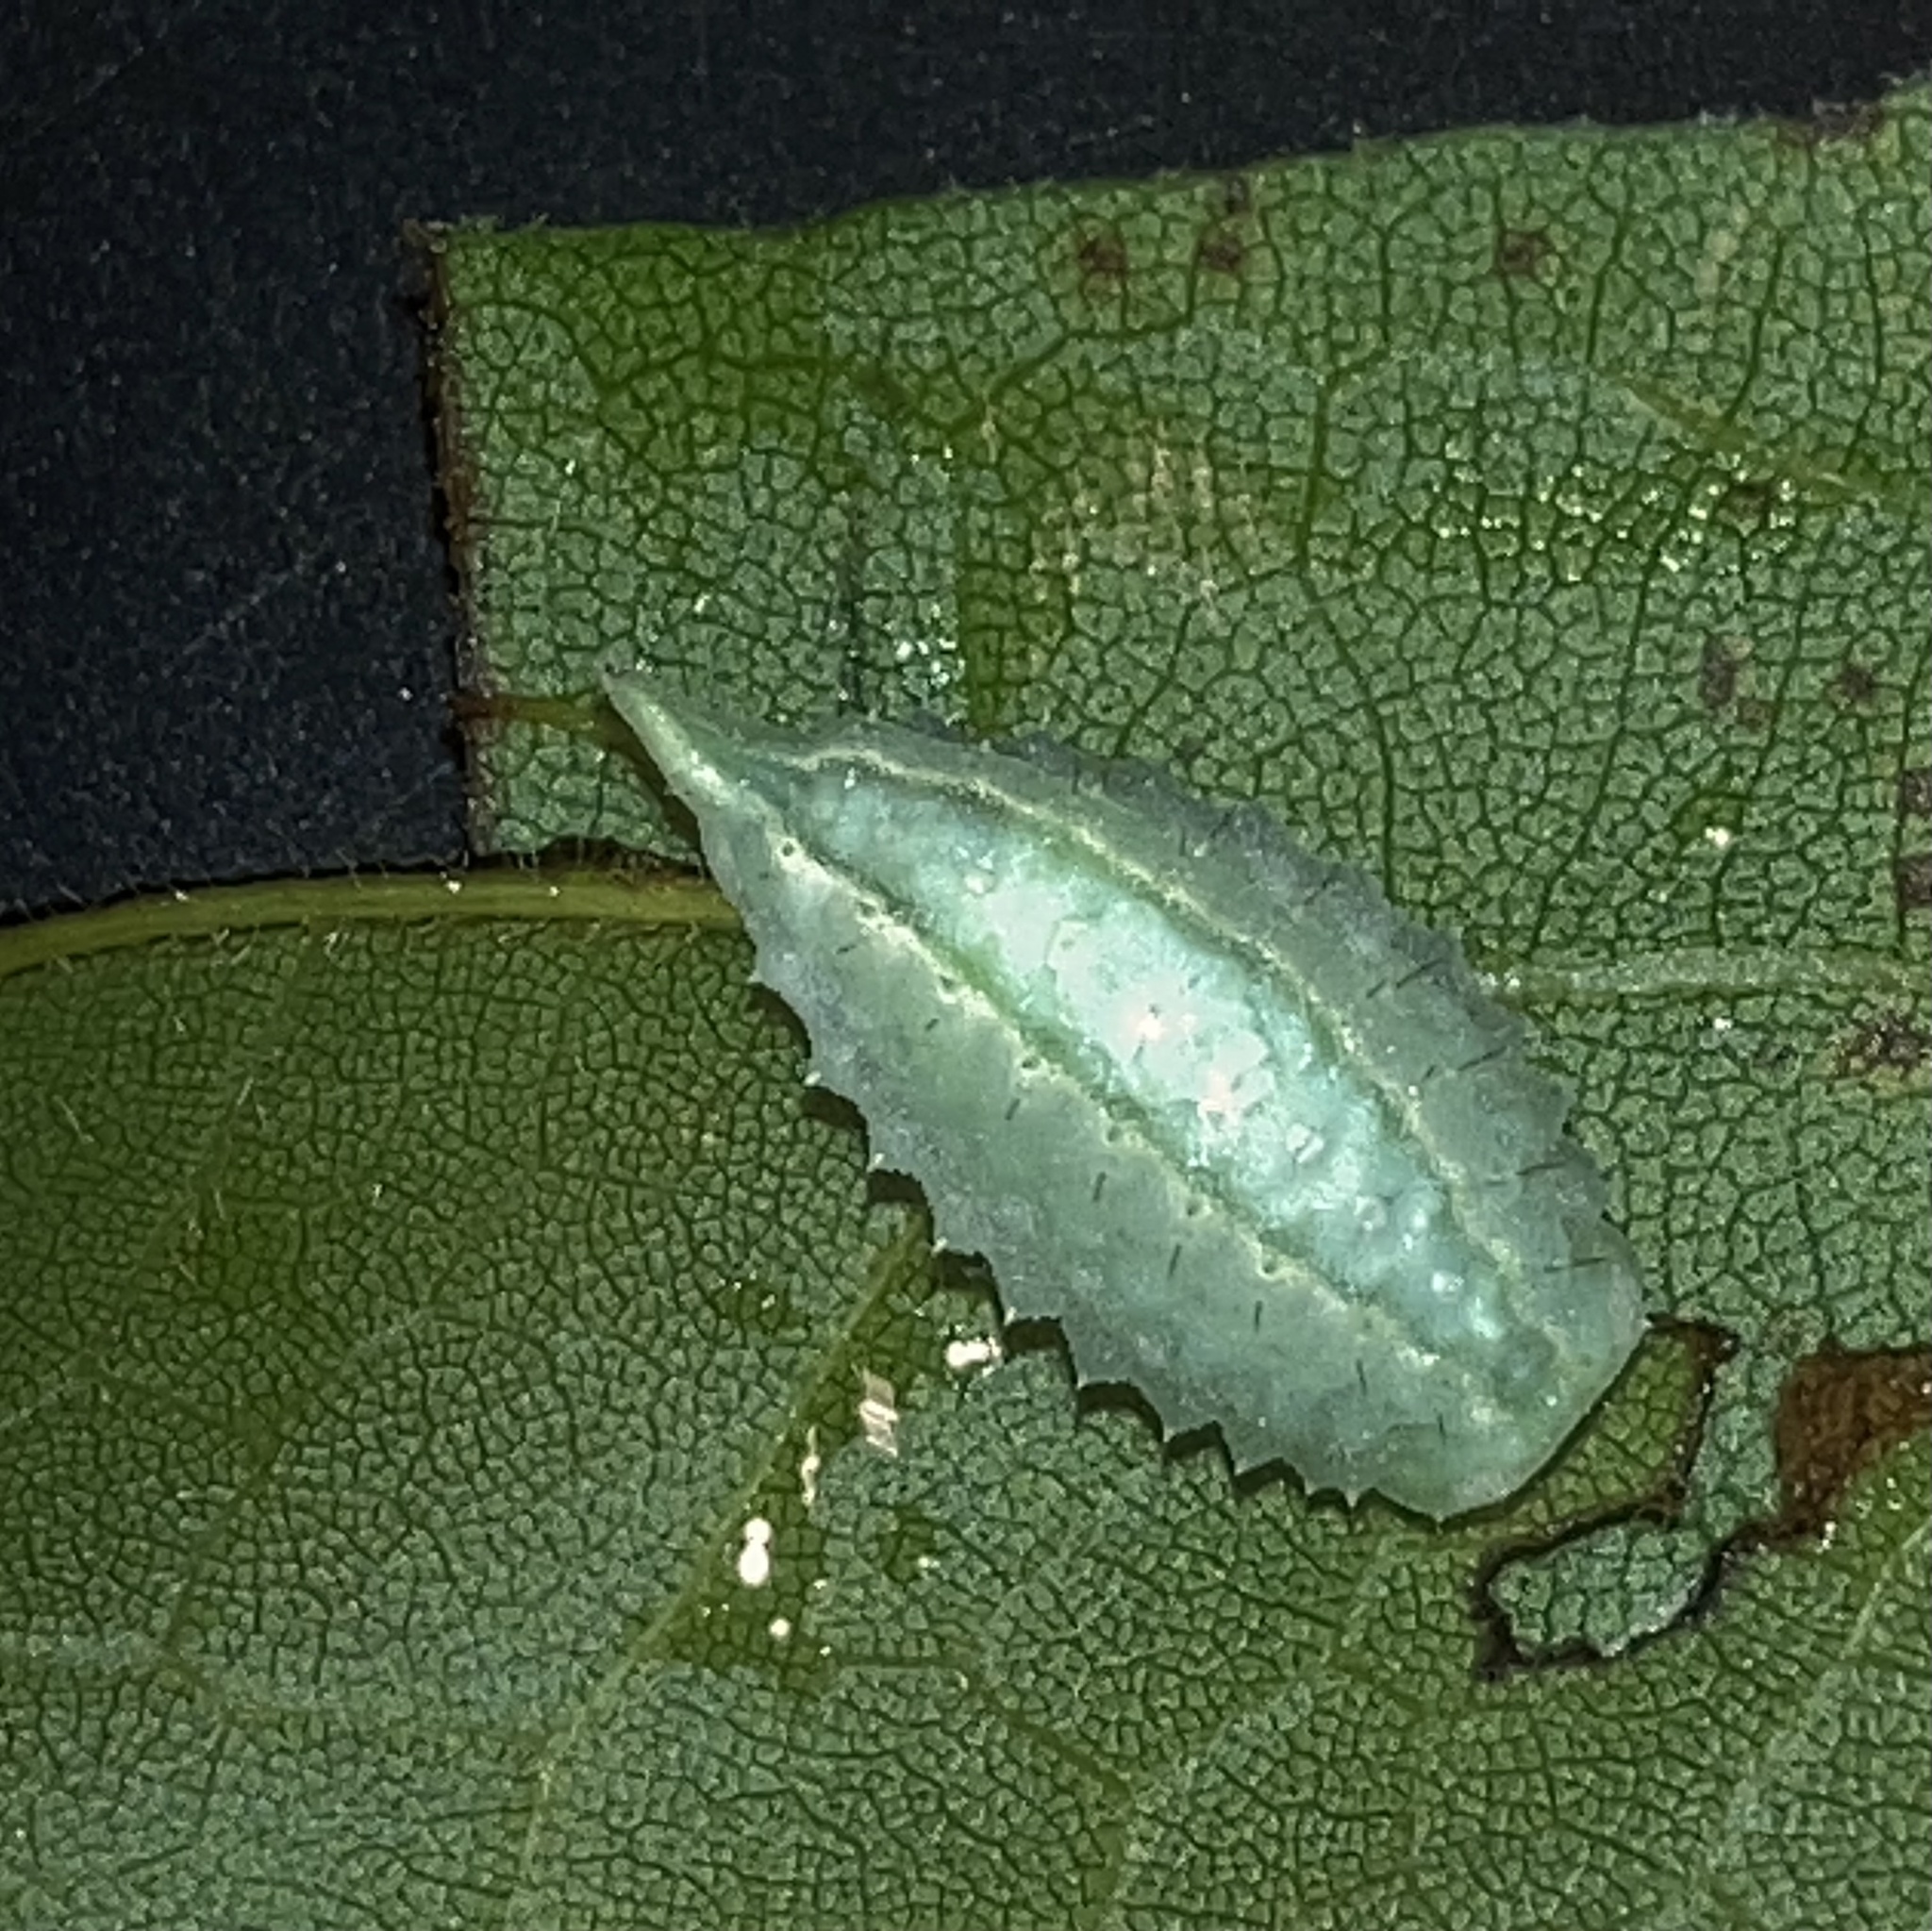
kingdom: Animalia
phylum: Arthropoda
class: Insecta
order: Lepidoptera
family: Limacodidae
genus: Packardia
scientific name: Packardia geminata
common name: Jeweled tailed slug moth
